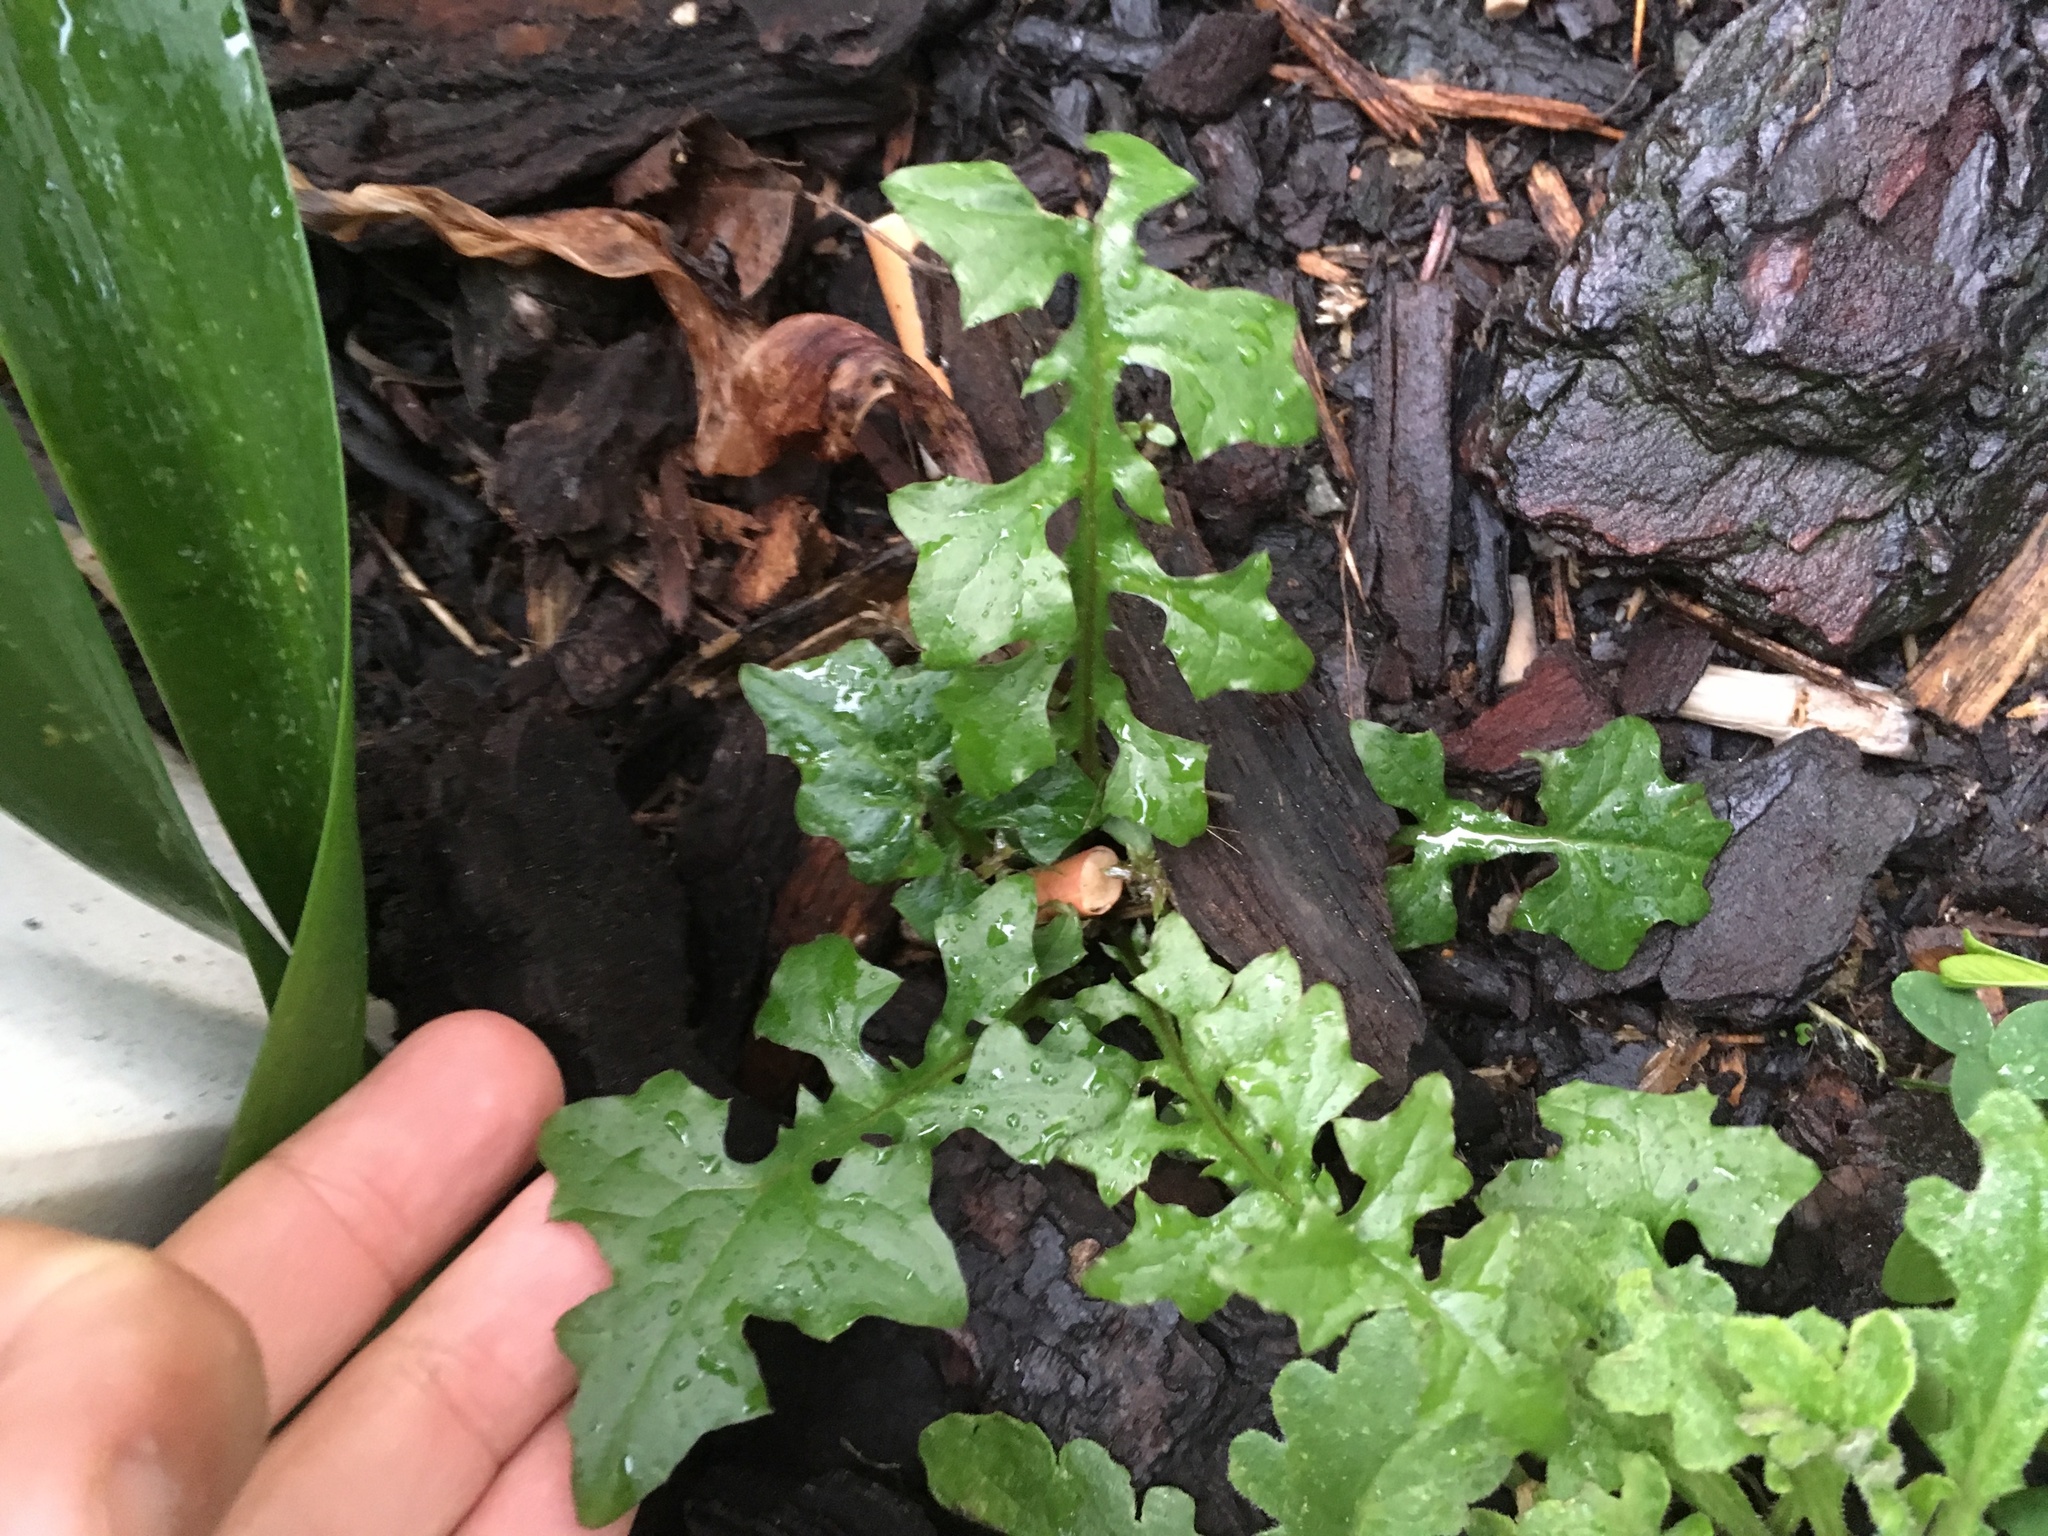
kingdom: Plantae
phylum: Tracheophyta
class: Magnoliopsida
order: Asterales
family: Asteraceae
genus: Mycelis
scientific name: Mycelis muralis
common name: Wall lettuce
